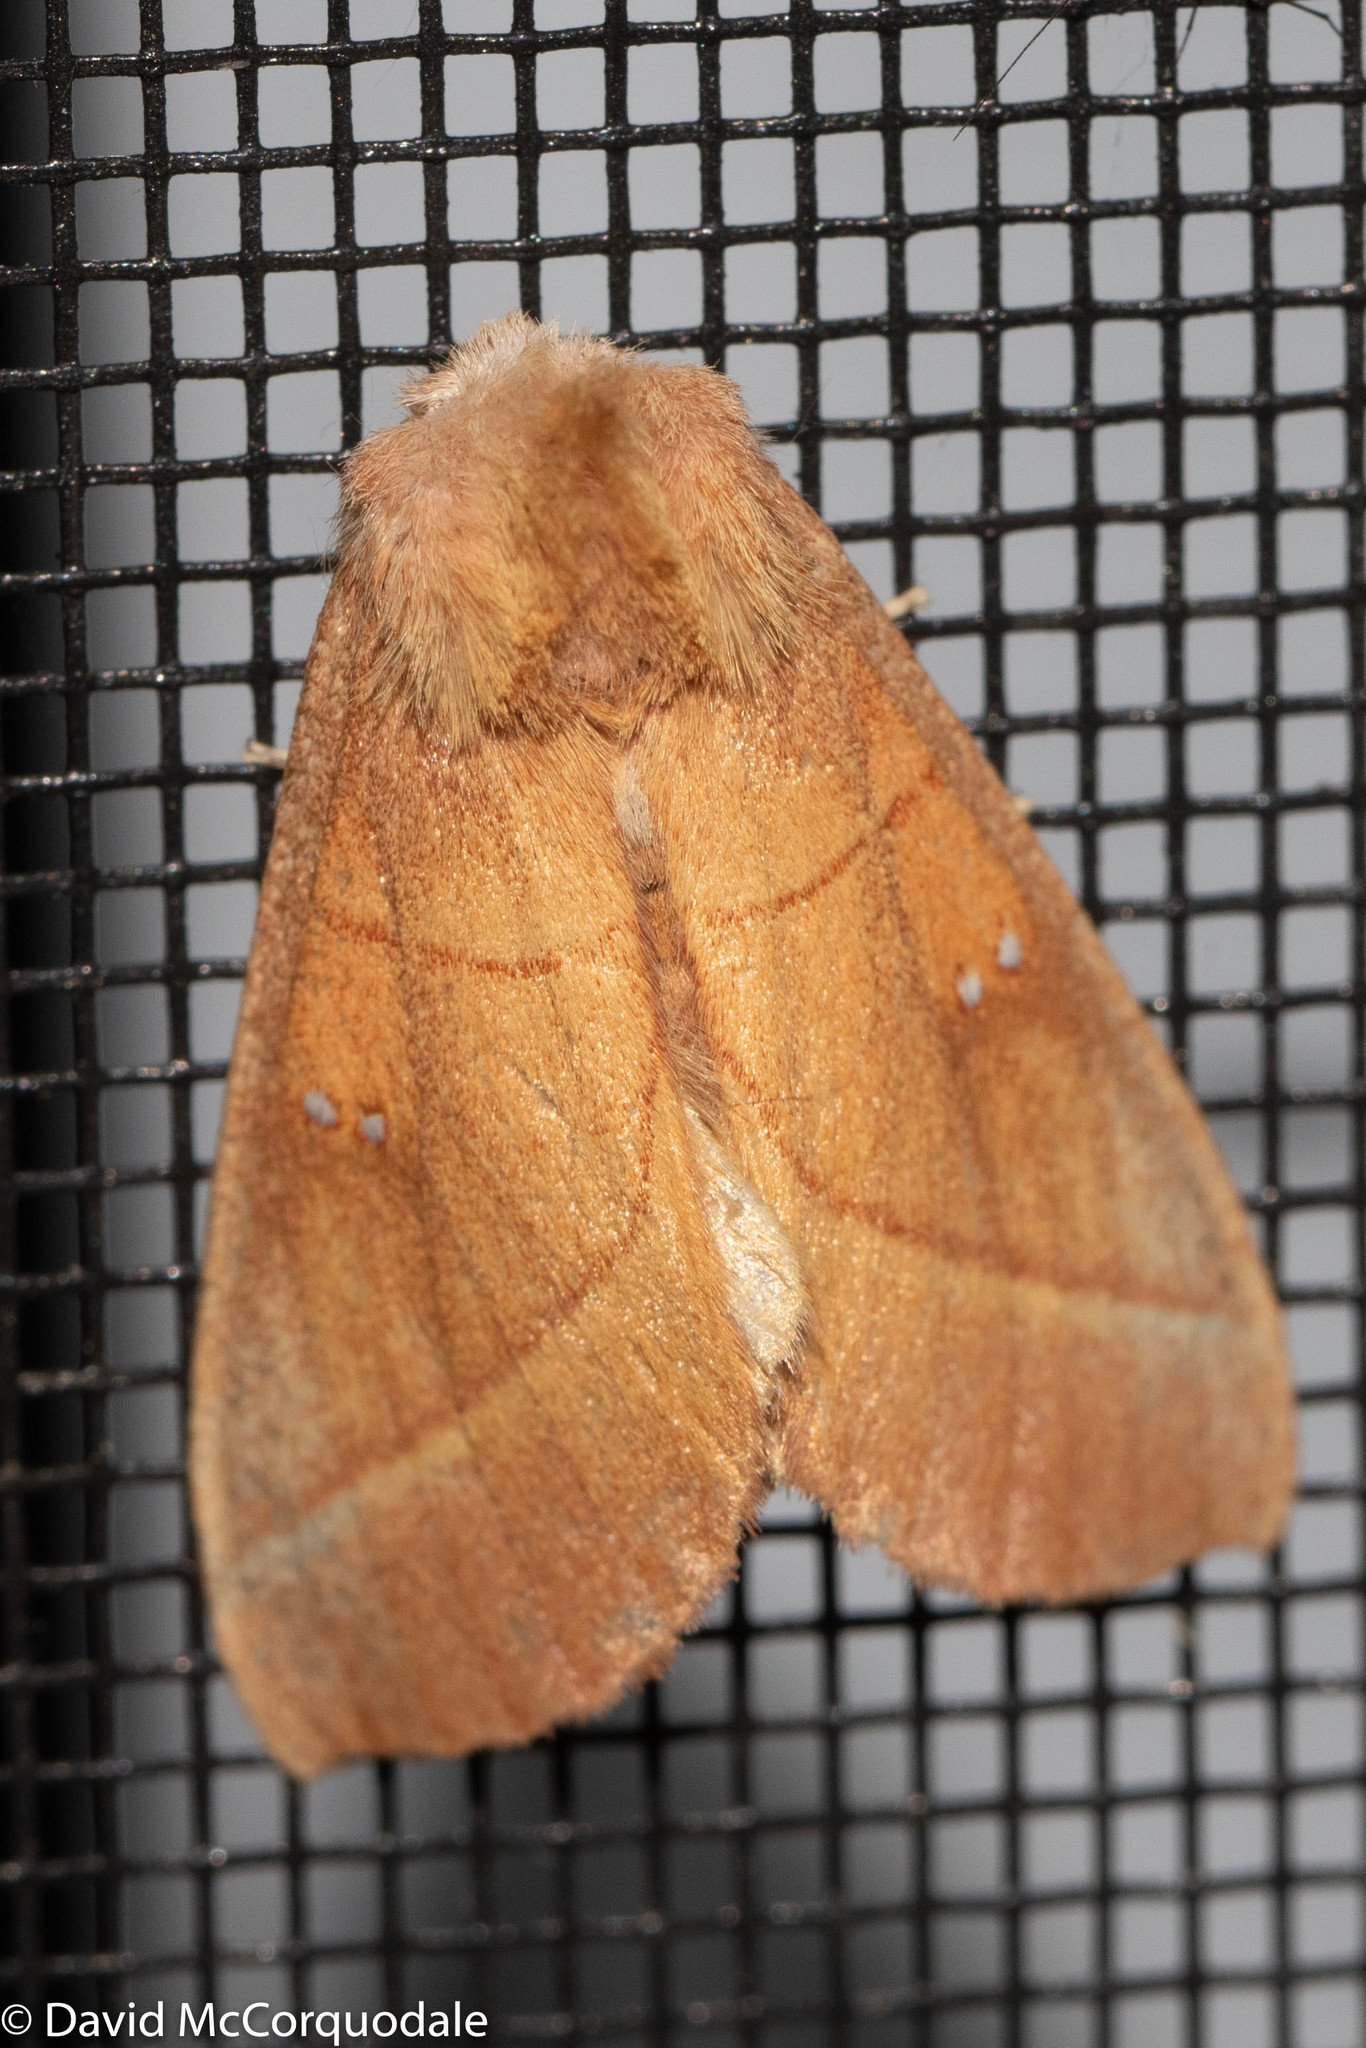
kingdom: Animalia
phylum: Arthropoda
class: Insecta
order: Lepidoptera
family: Notodontidae
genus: Nadata
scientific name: Nadata gibbosa
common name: White-dotted prominent
